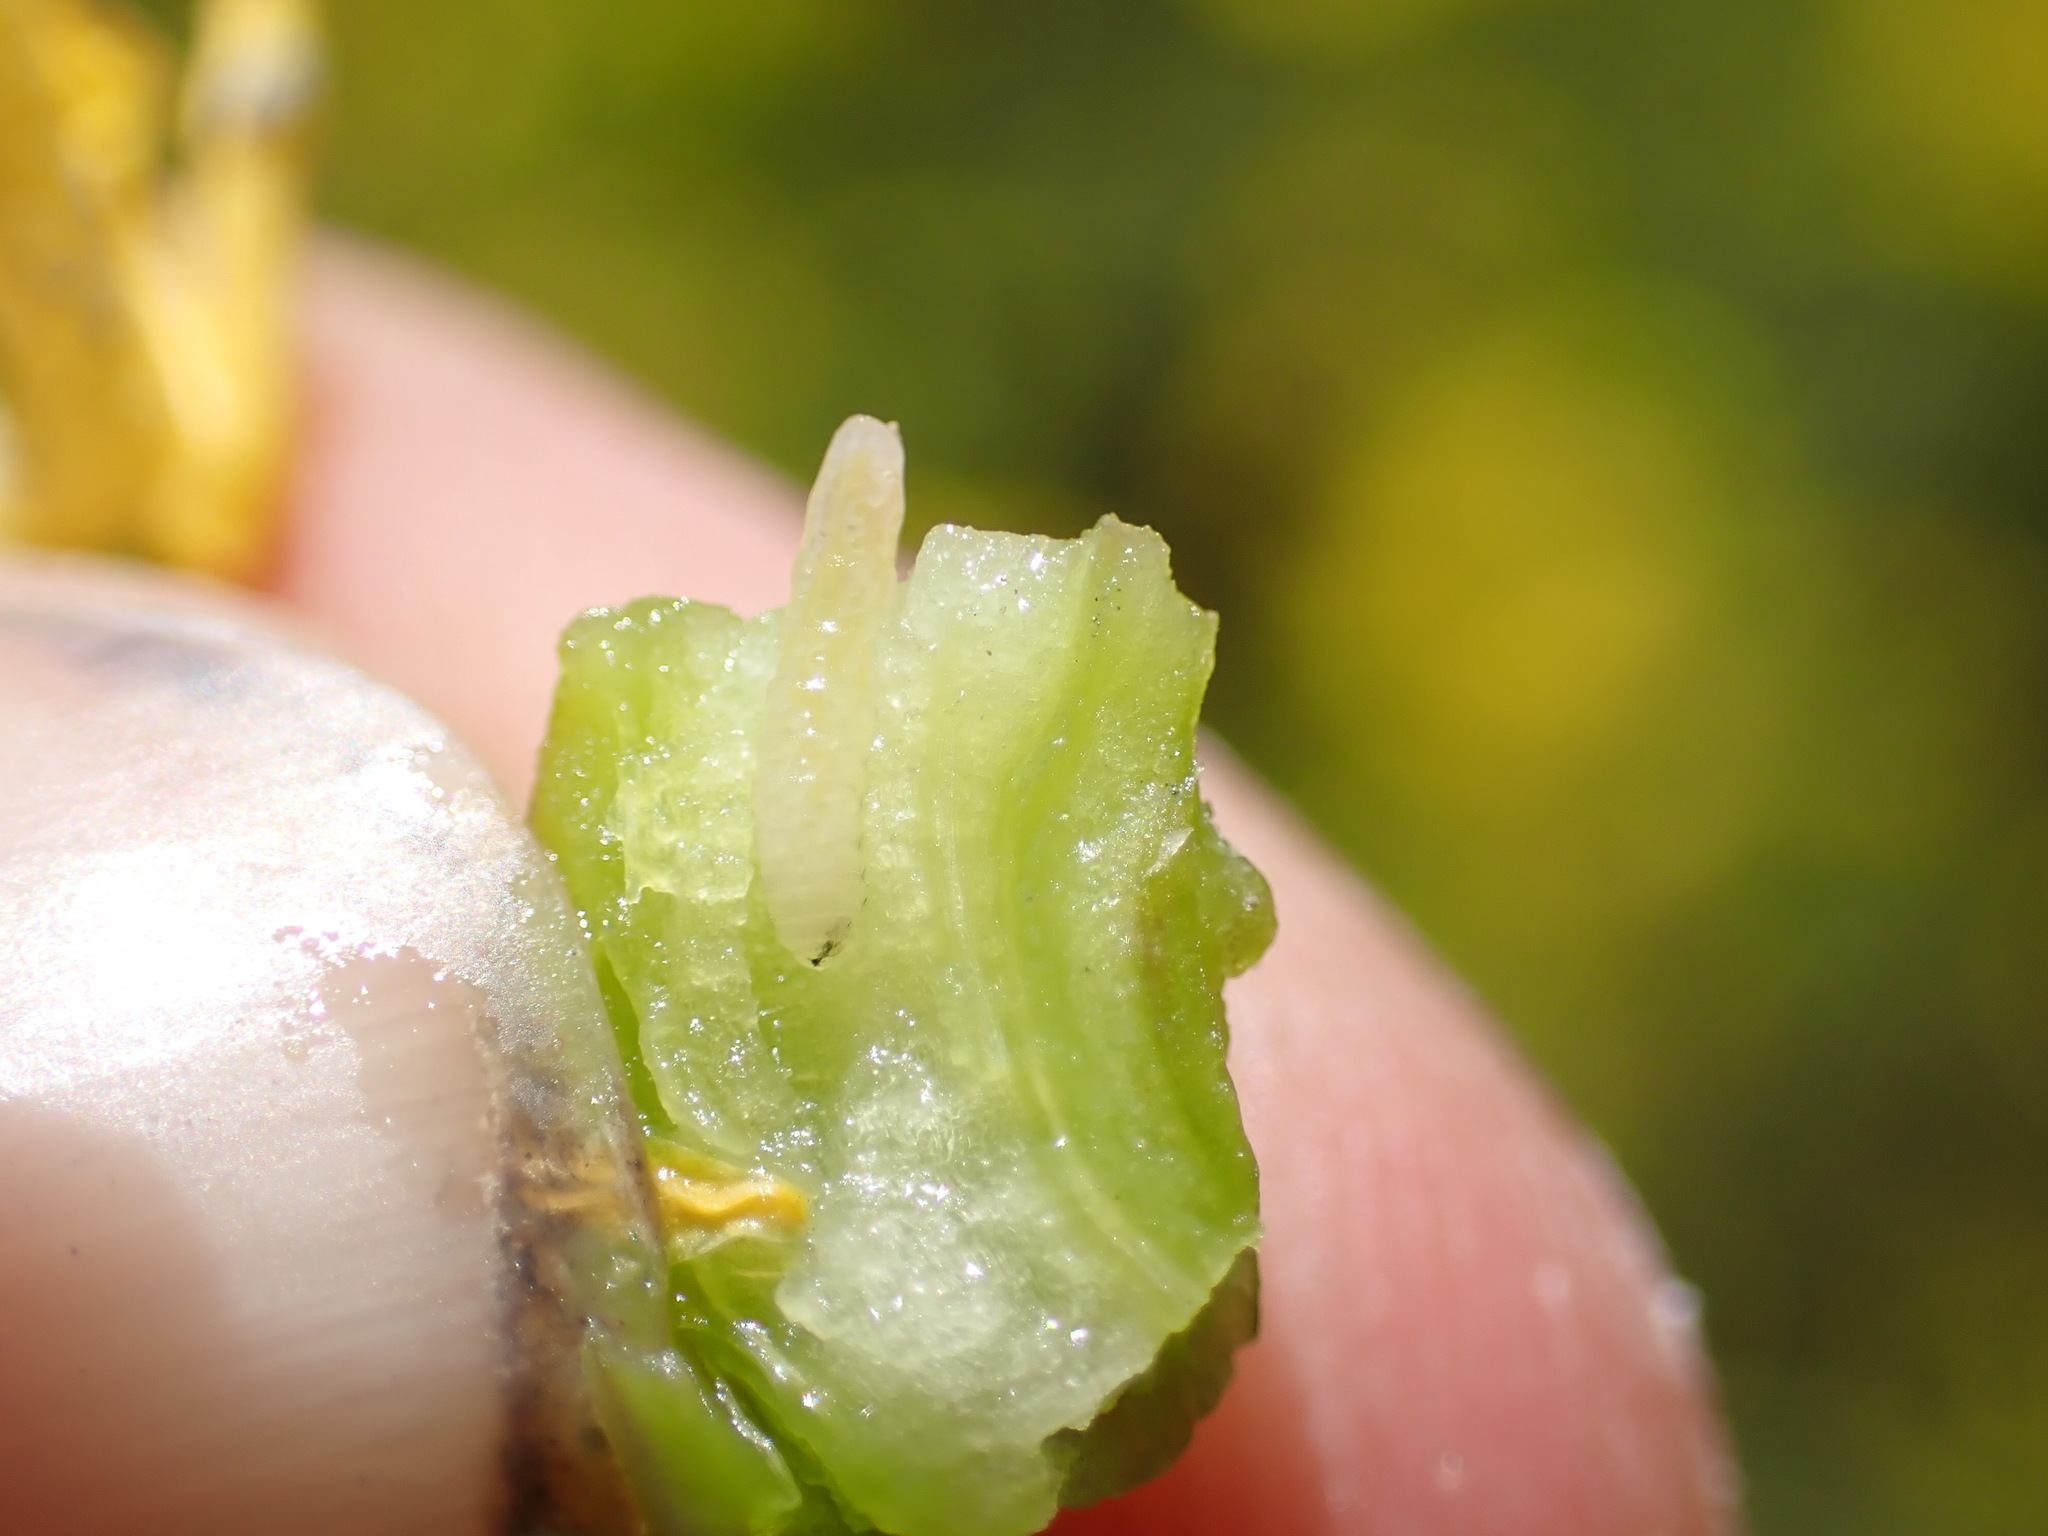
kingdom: Chromista
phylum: Oomycota
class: Peronosporea
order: Albuginales
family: Albuginaceae
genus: Albugo
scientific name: Albugo candida
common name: Crucifer white blister
